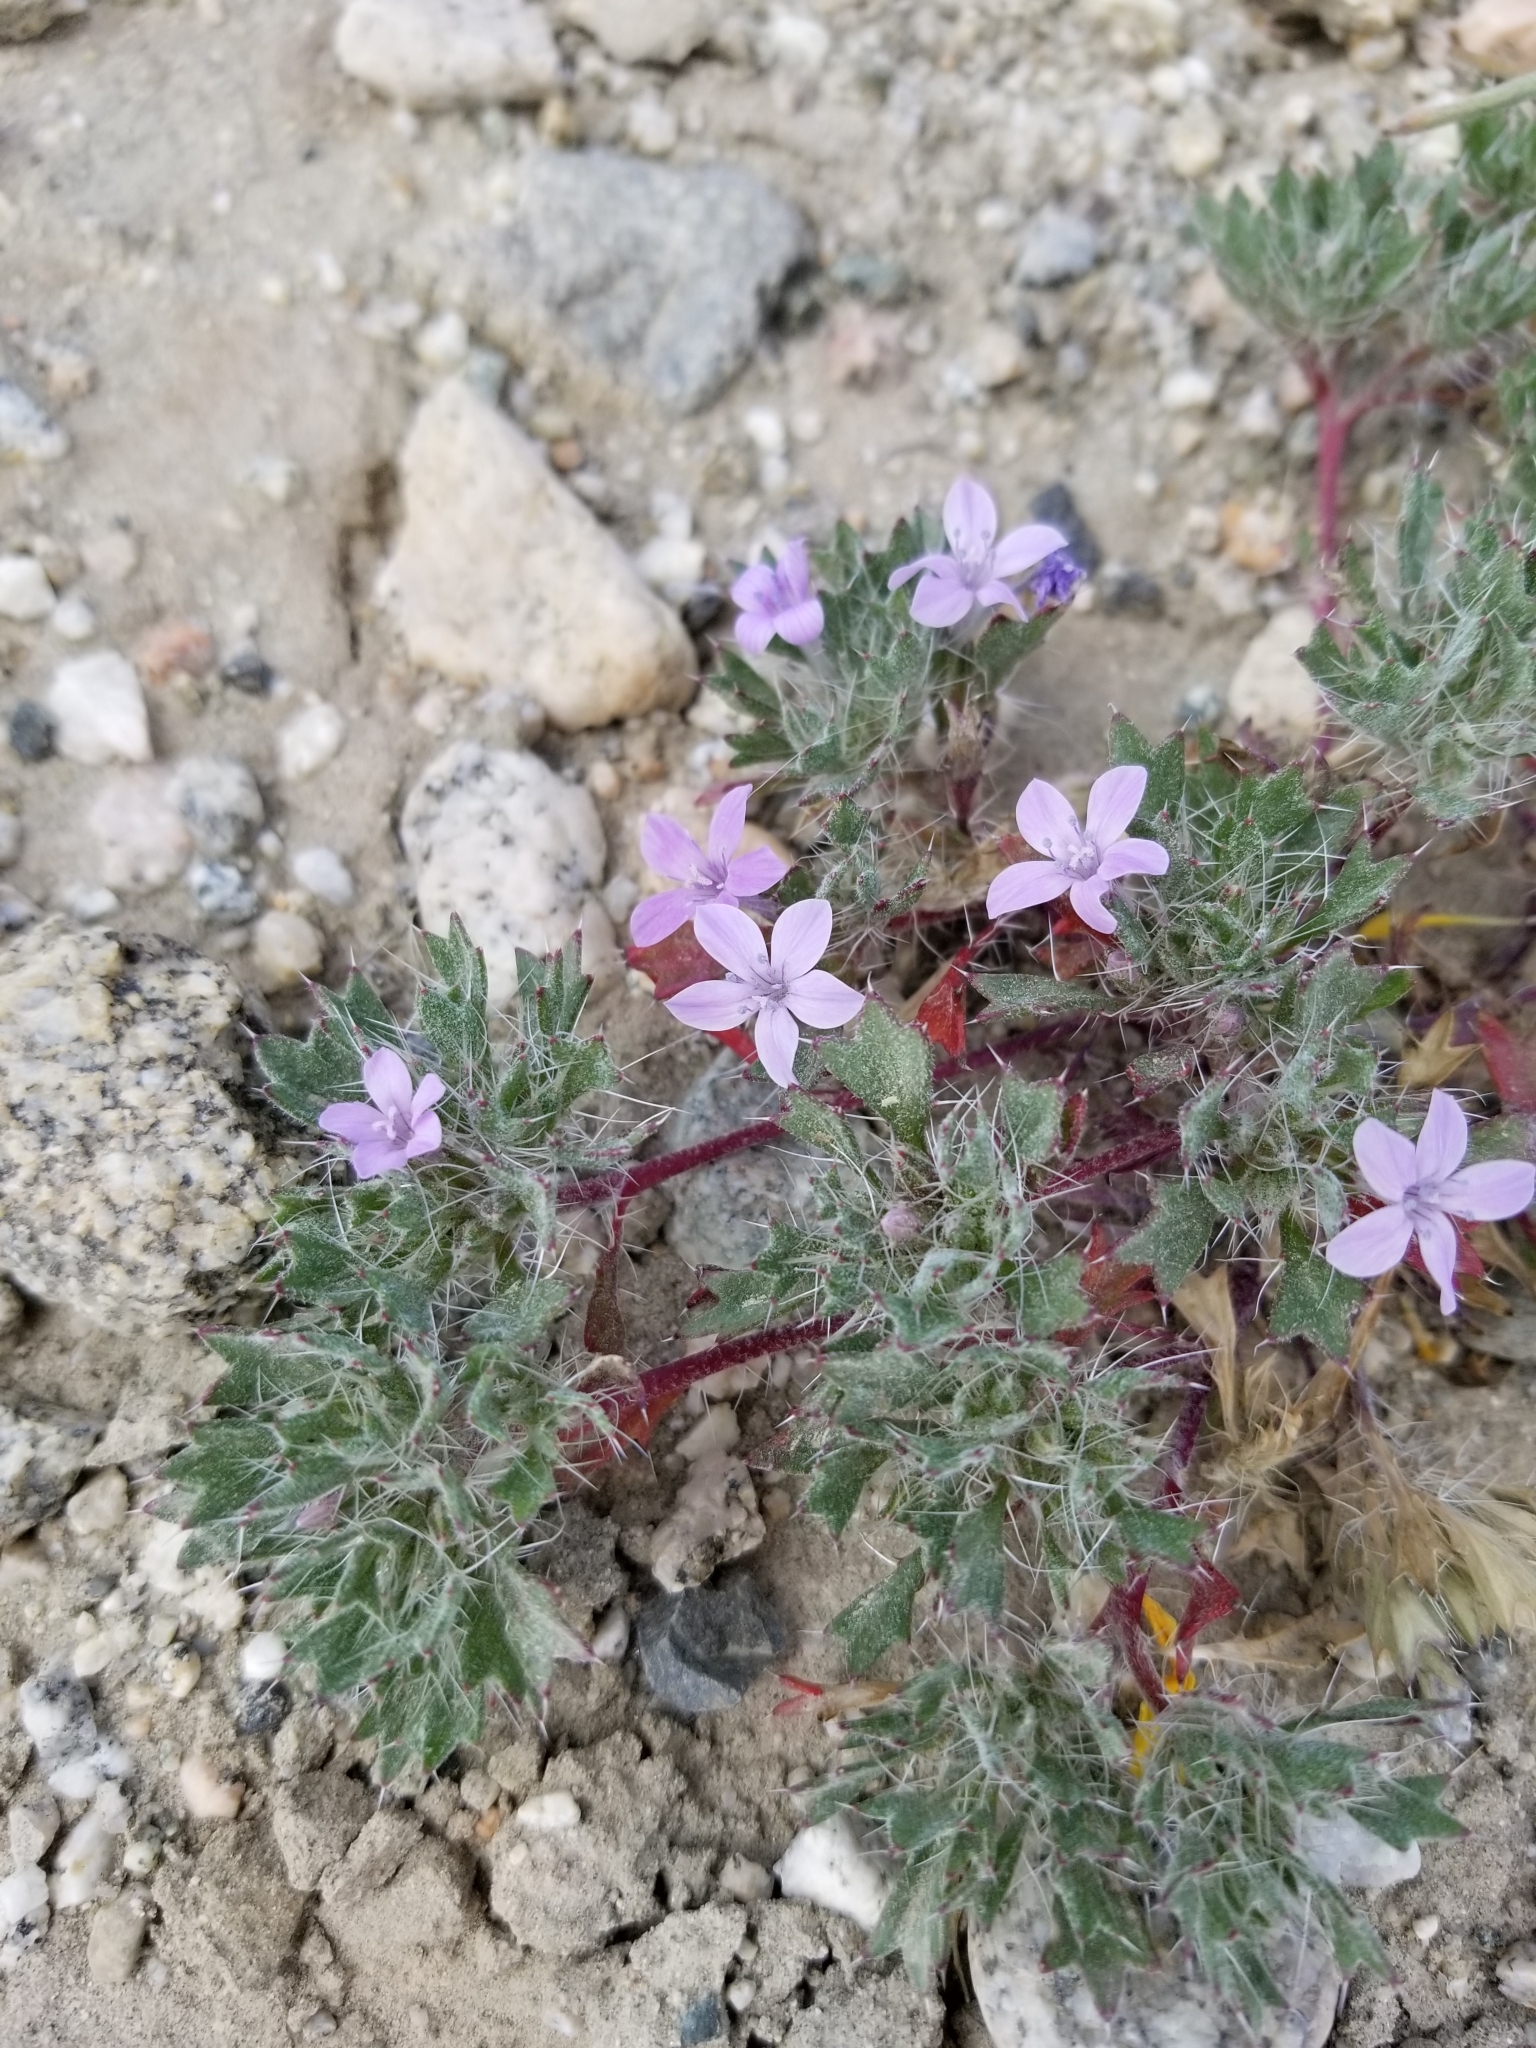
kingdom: Plantae
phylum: Tracheophyta
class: Magnoliopsida
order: Ericales
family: Polemoniaceae
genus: Langloisia
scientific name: Langloisia setosissima
